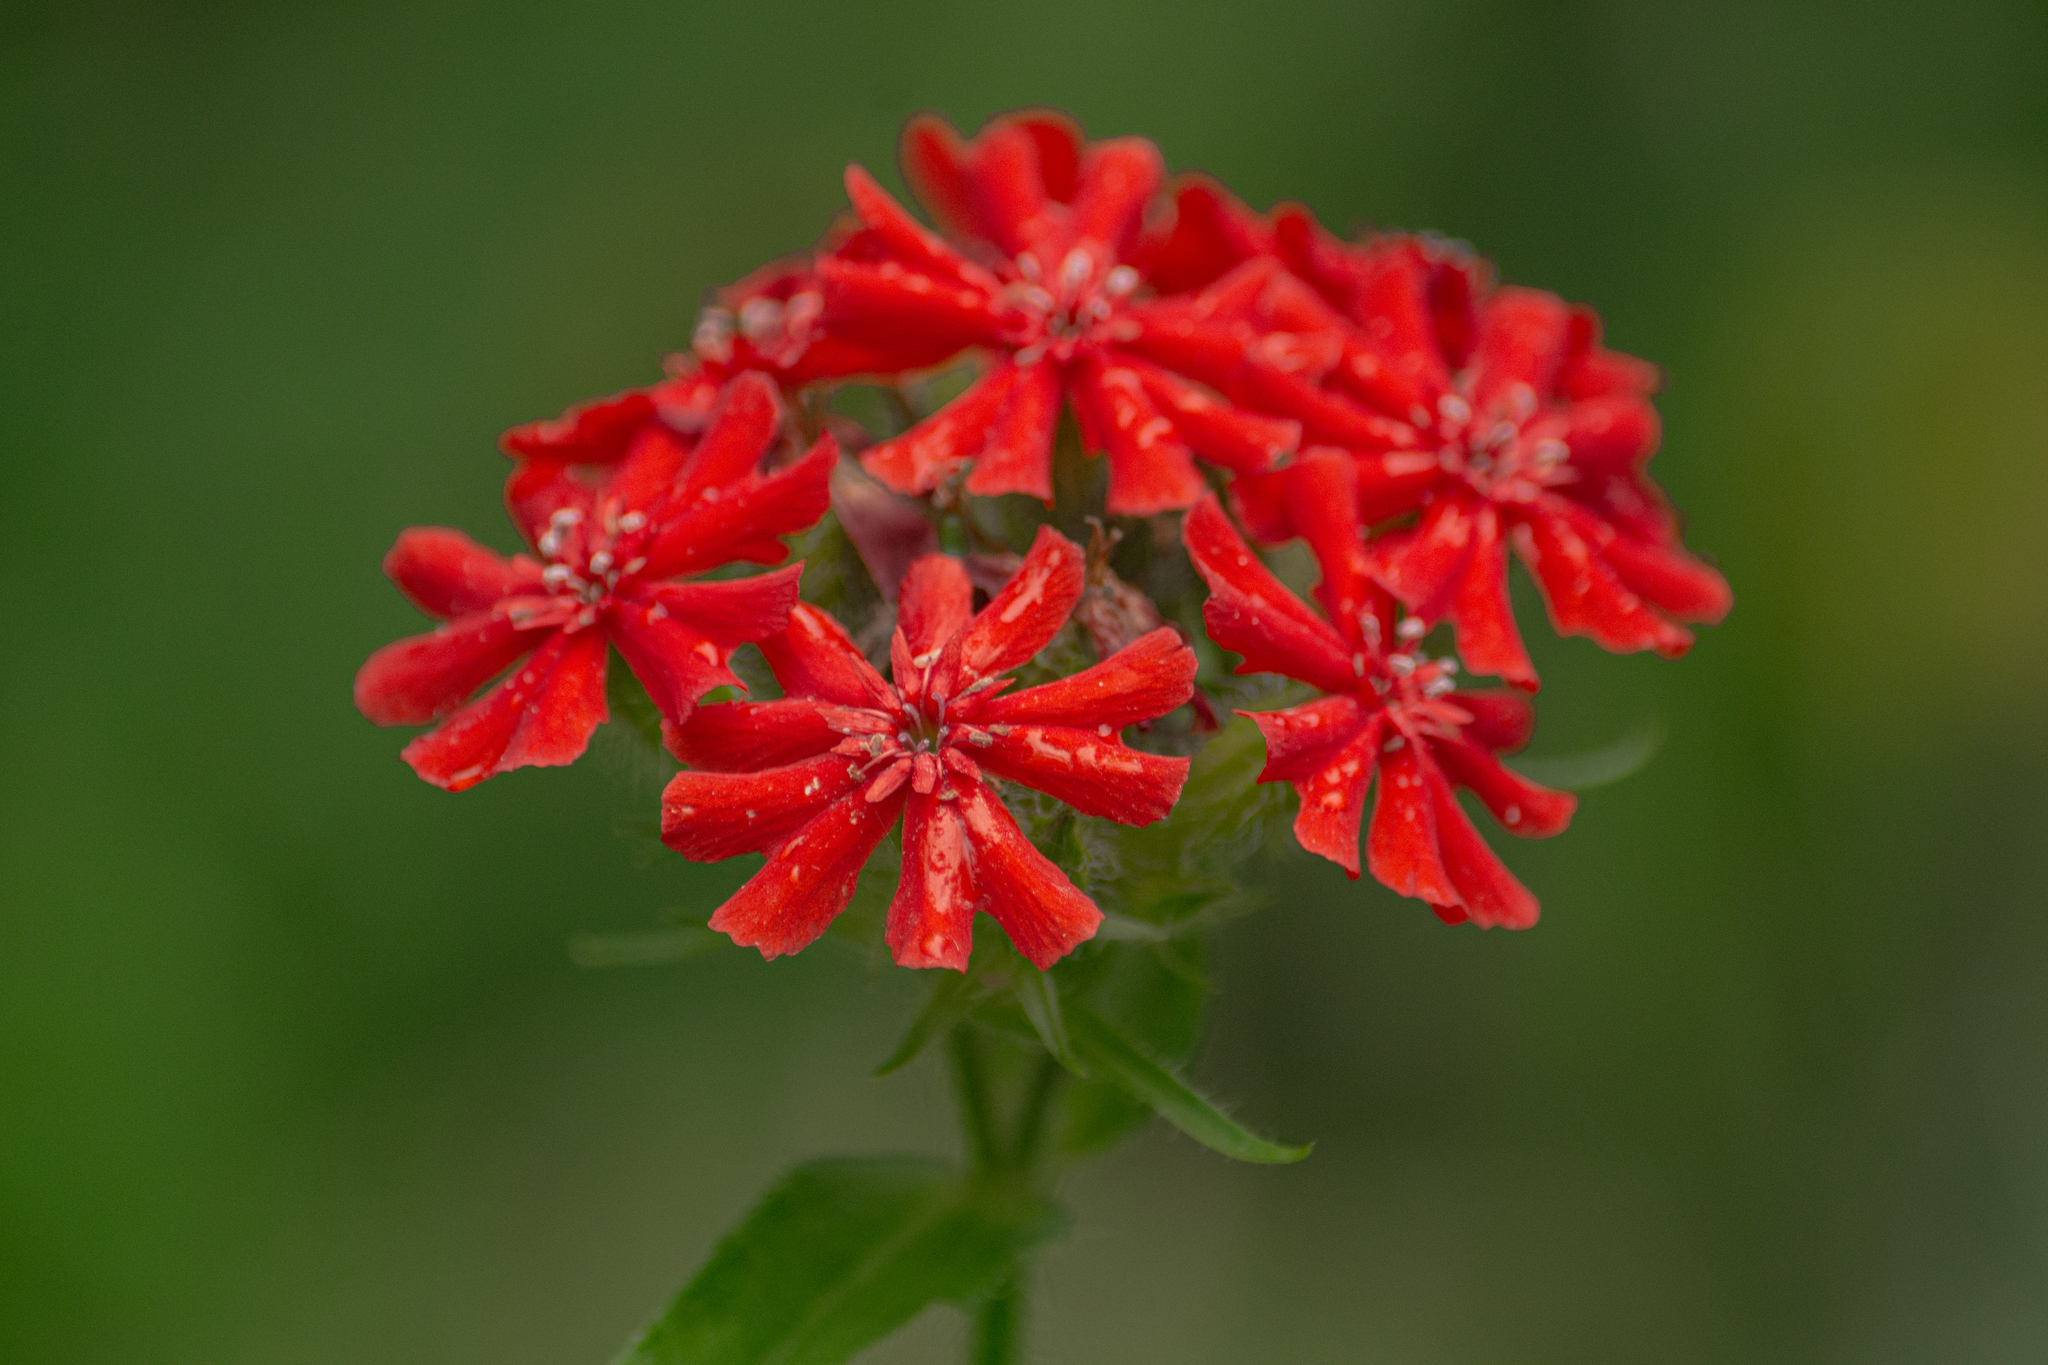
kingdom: Plantae
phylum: Tracheophyta
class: Magnoliopsida
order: Caryophyllales
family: Caryophyllaceae
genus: Silene
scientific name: Silene chalcedonica
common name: Maltese-cross
